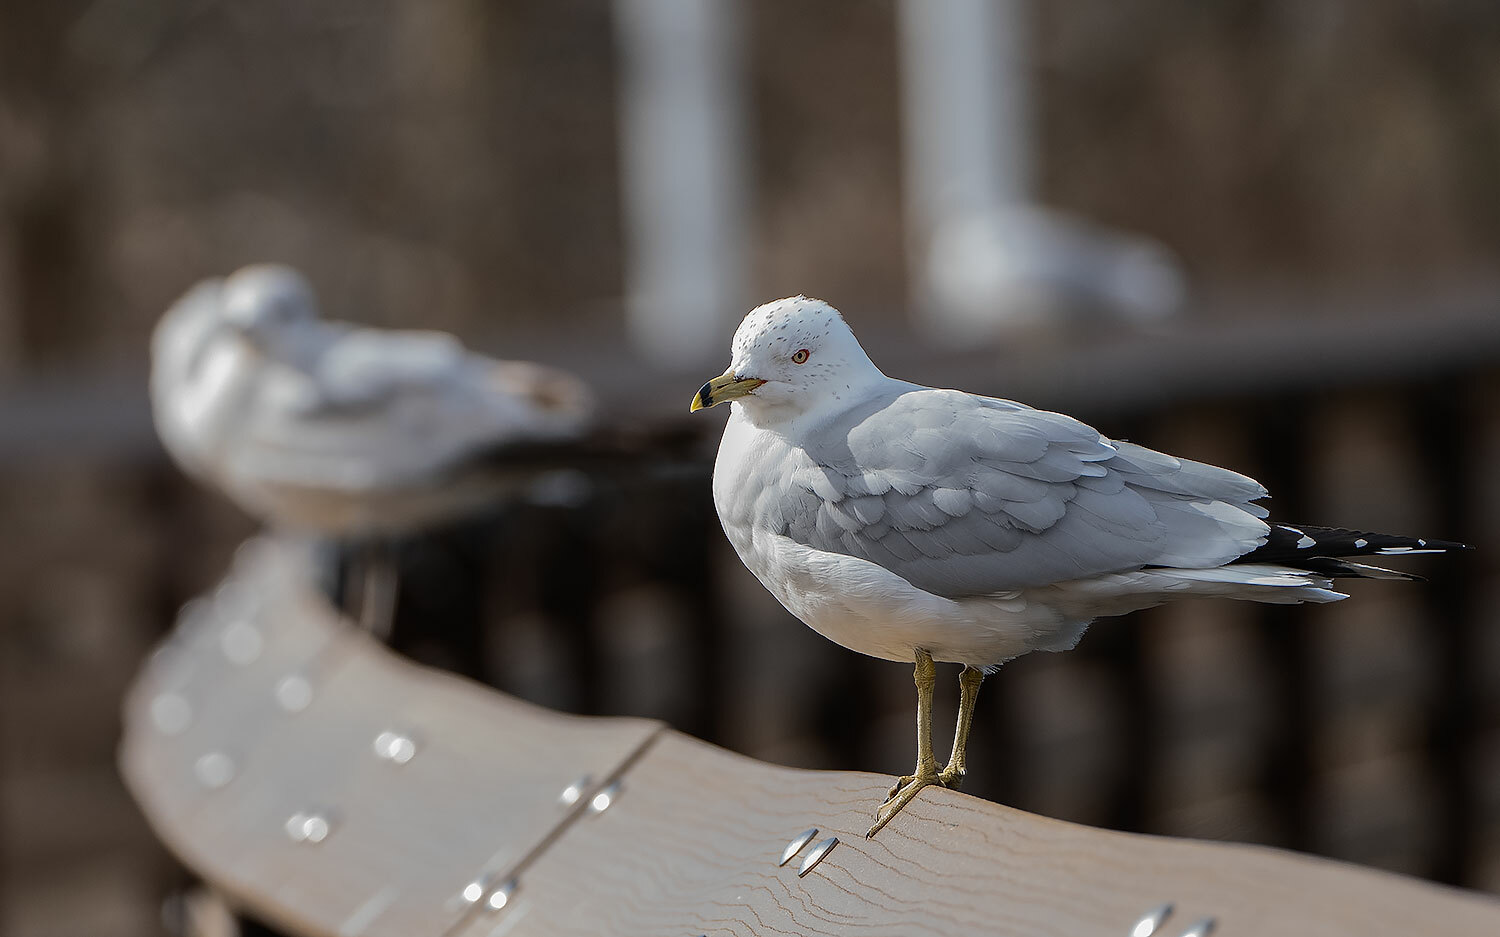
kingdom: Animalia
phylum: Chordata
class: Aves
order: Charadriiformes
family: Laridae
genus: Larus
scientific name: Larus delawarensis
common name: Ring-billed gull
